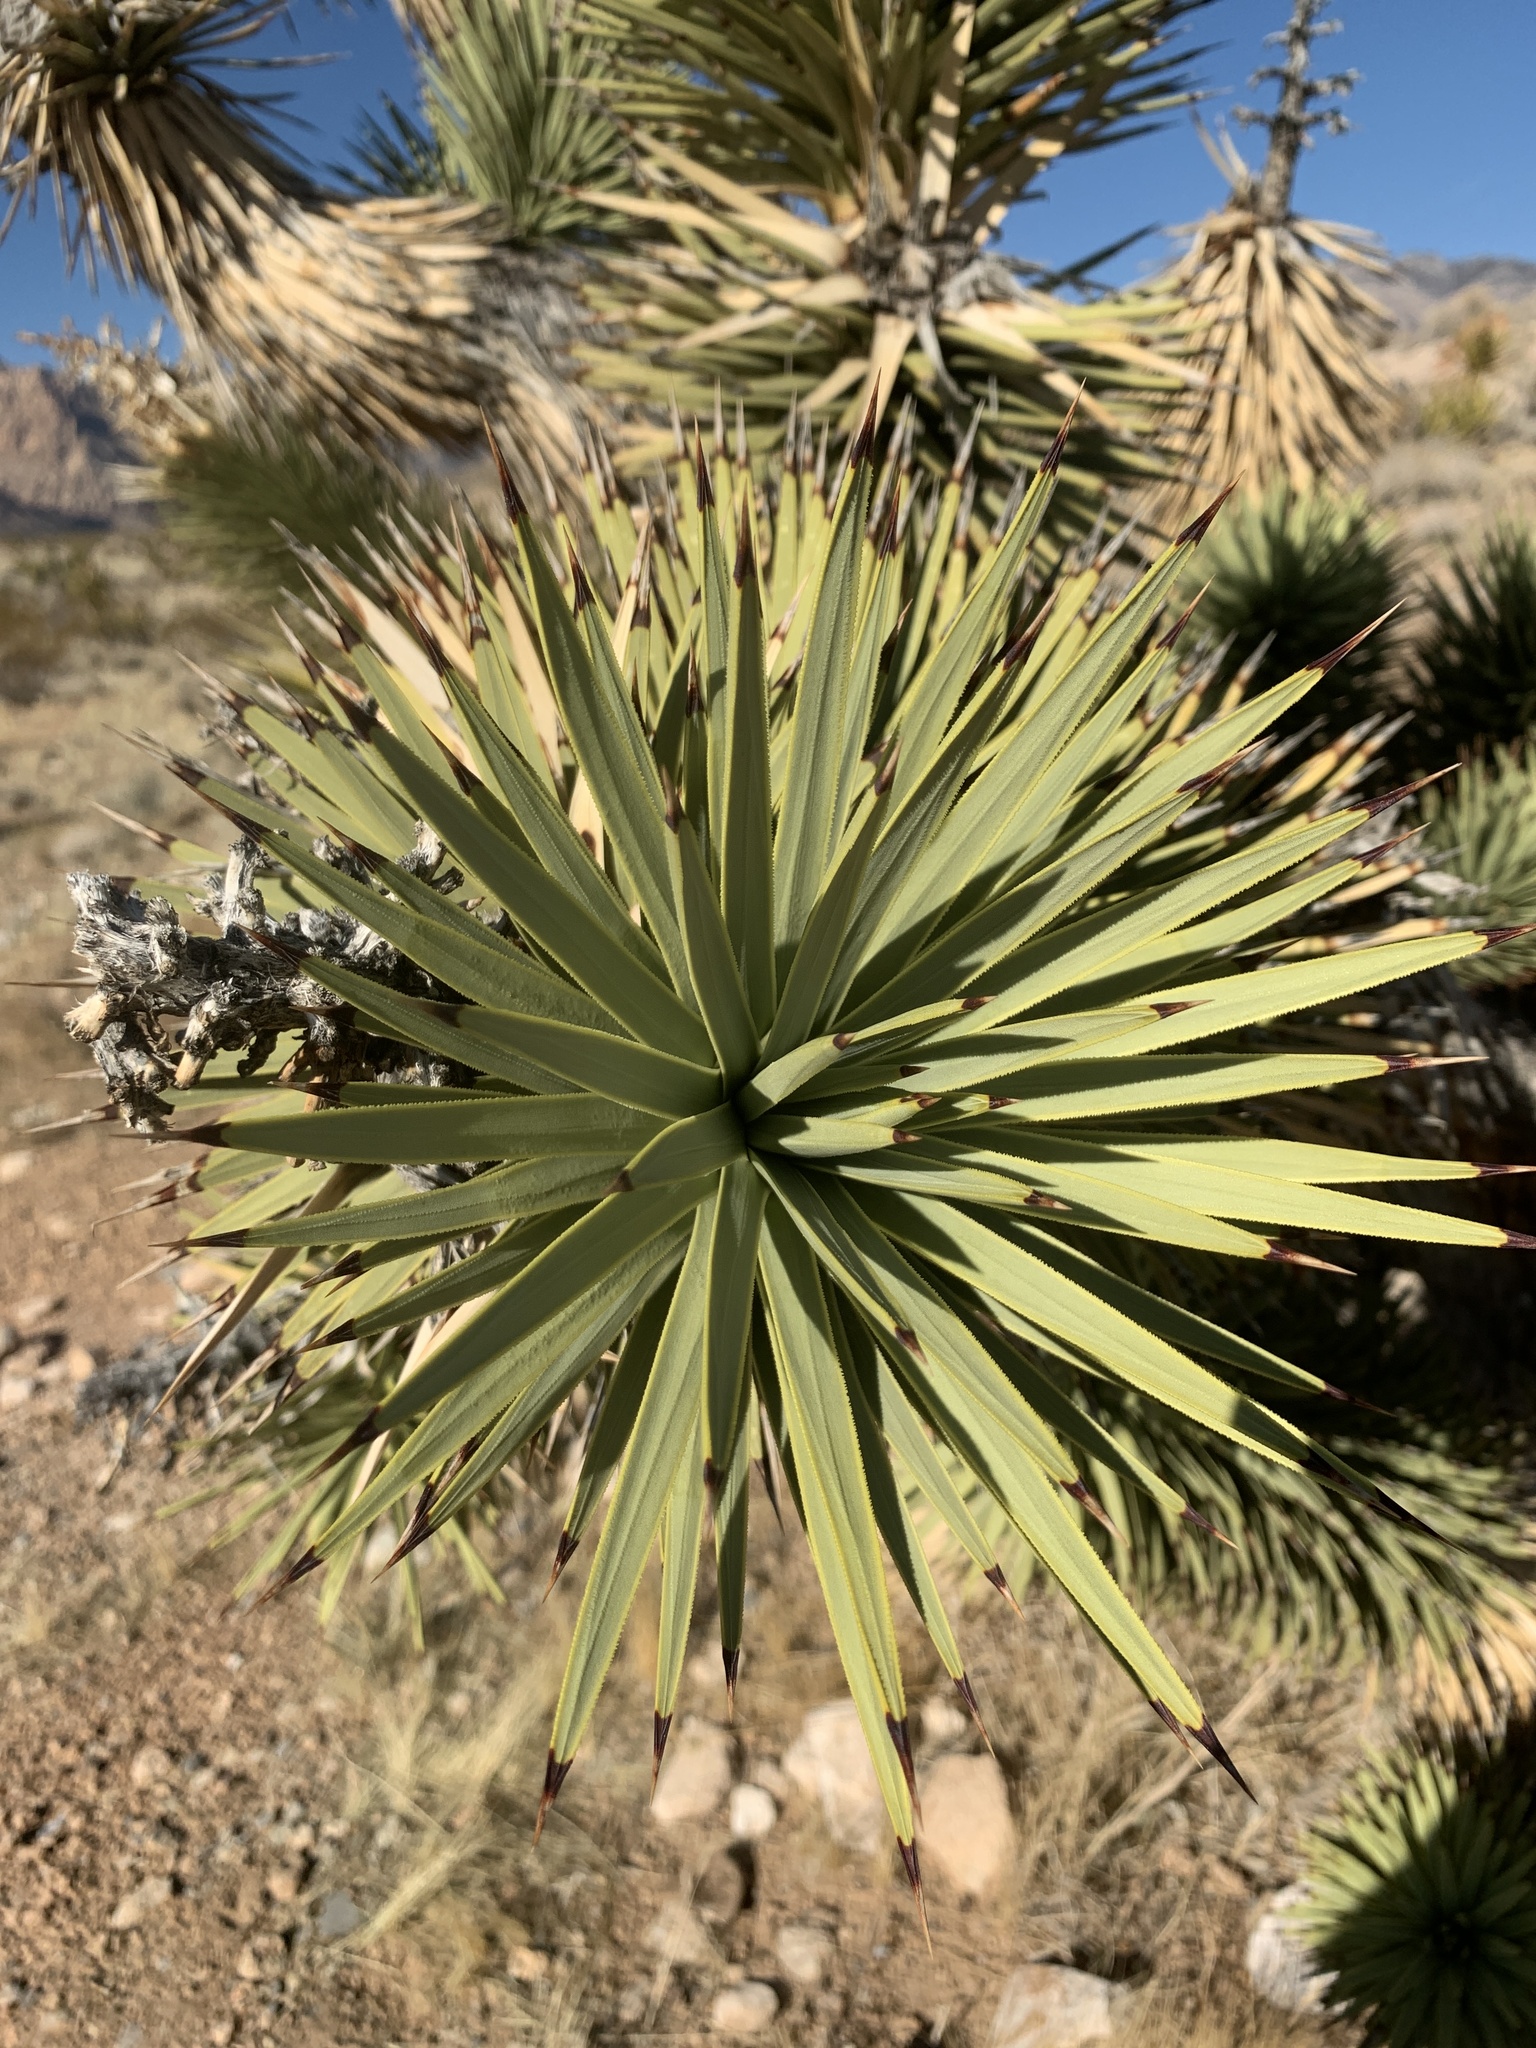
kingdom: Plantae
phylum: Tracheophyta
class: Liliopsida
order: Asparagales
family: Asparagaceae
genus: Yucca
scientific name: Yucca brevifolia
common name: Joshua tree
